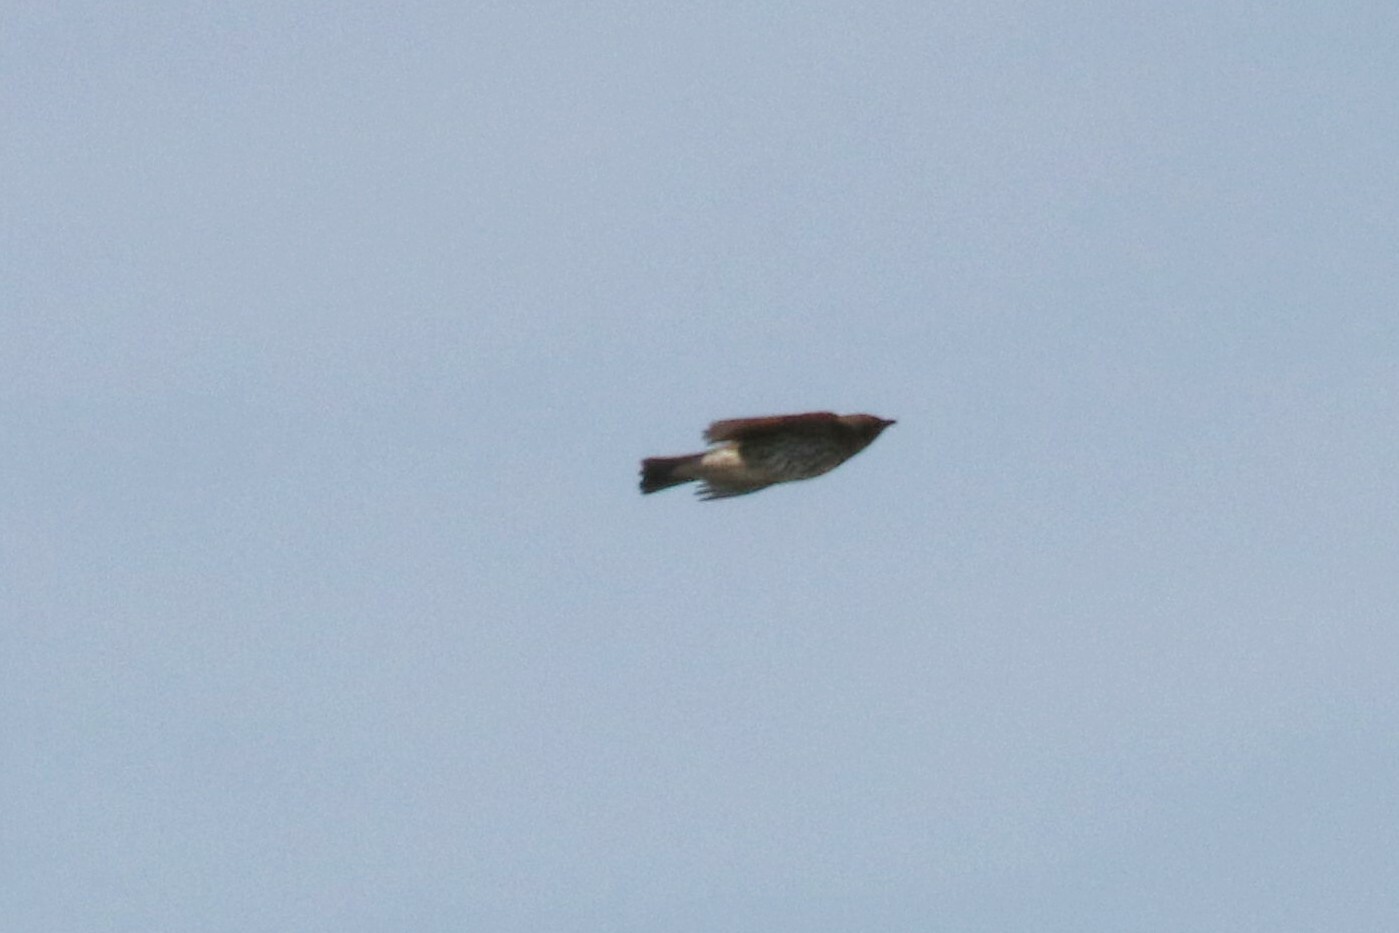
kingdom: Animalia
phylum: Chordata
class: Aves
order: Passeriformes
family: Turdidae
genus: Turdus
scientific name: Turdus philomelos
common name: Song thrush
